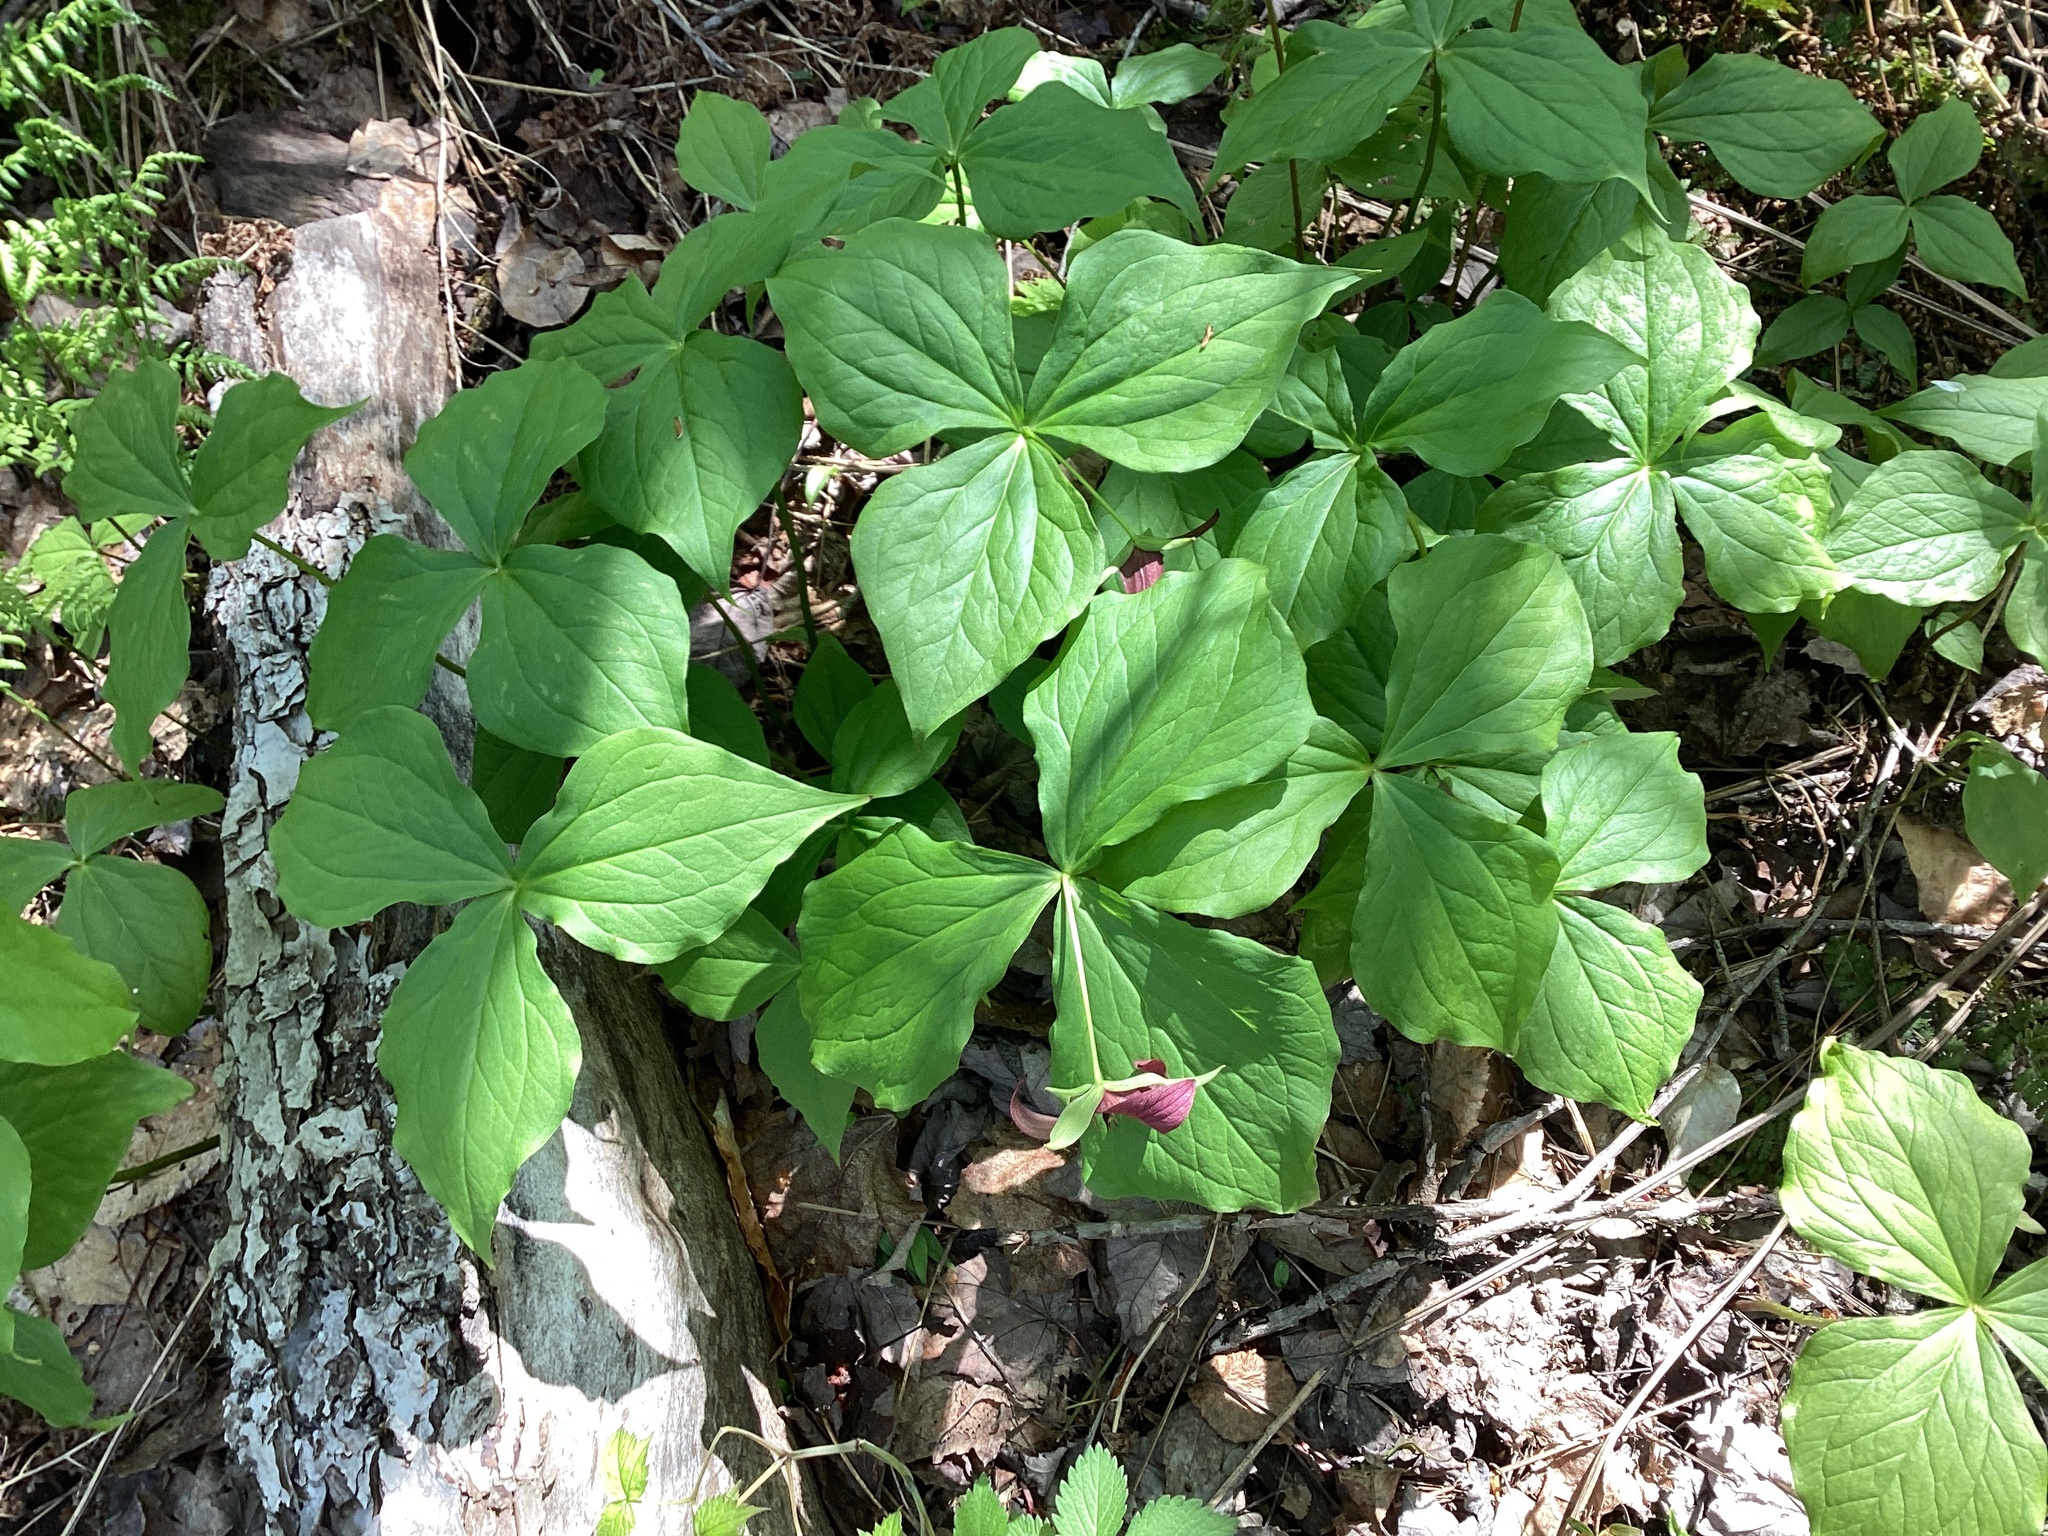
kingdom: Plantae
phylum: Tracheophyta
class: Liliopsida
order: Liliales
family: Melanthiaceae
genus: Trillium
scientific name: Trillium erectum
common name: Purple trillium
